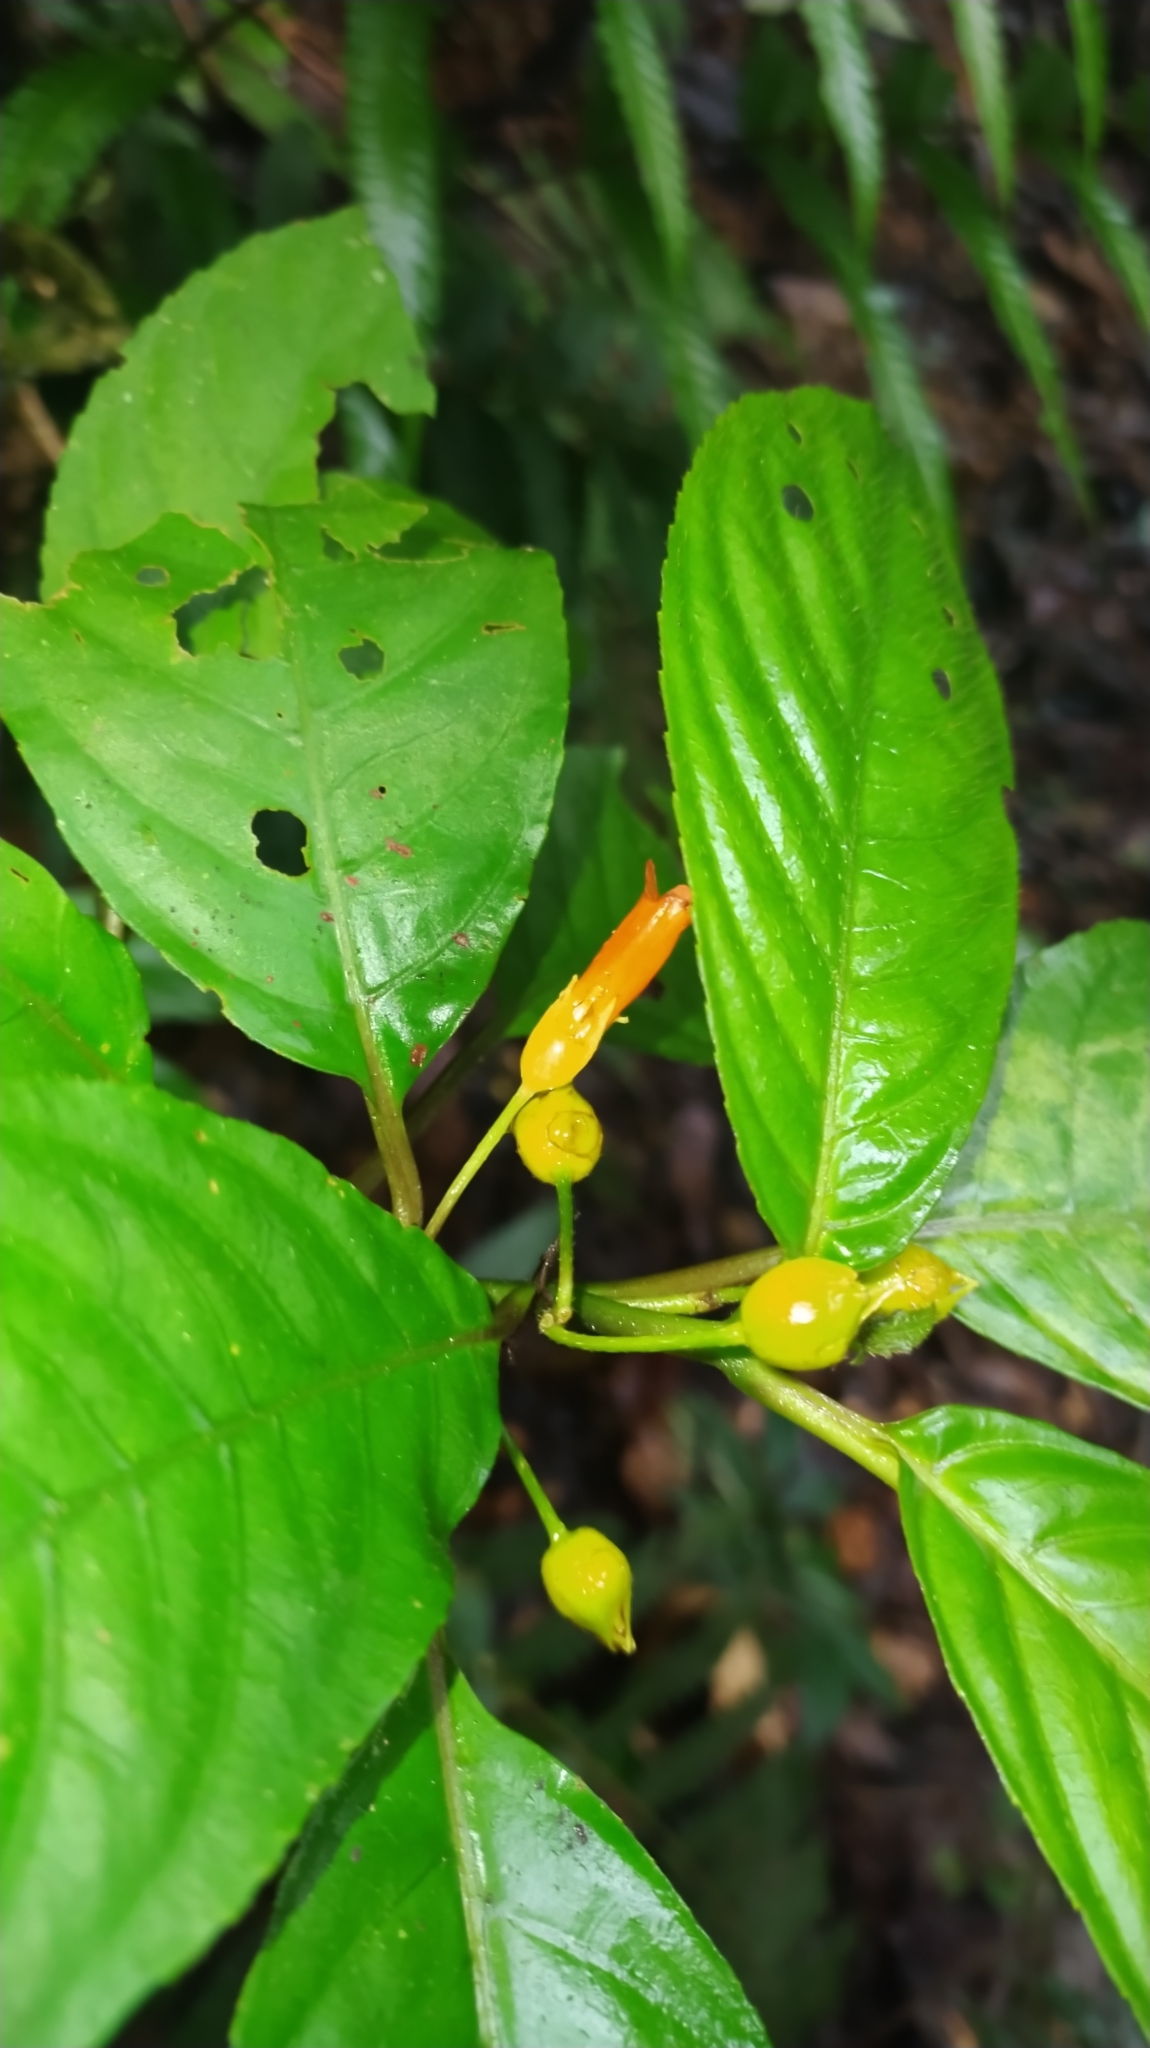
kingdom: Plantae
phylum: Tracheophyta
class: Magnoliopsida
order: Lamiales
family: Gesneriaceae
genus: Besleria
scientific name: Besleria patrisii
